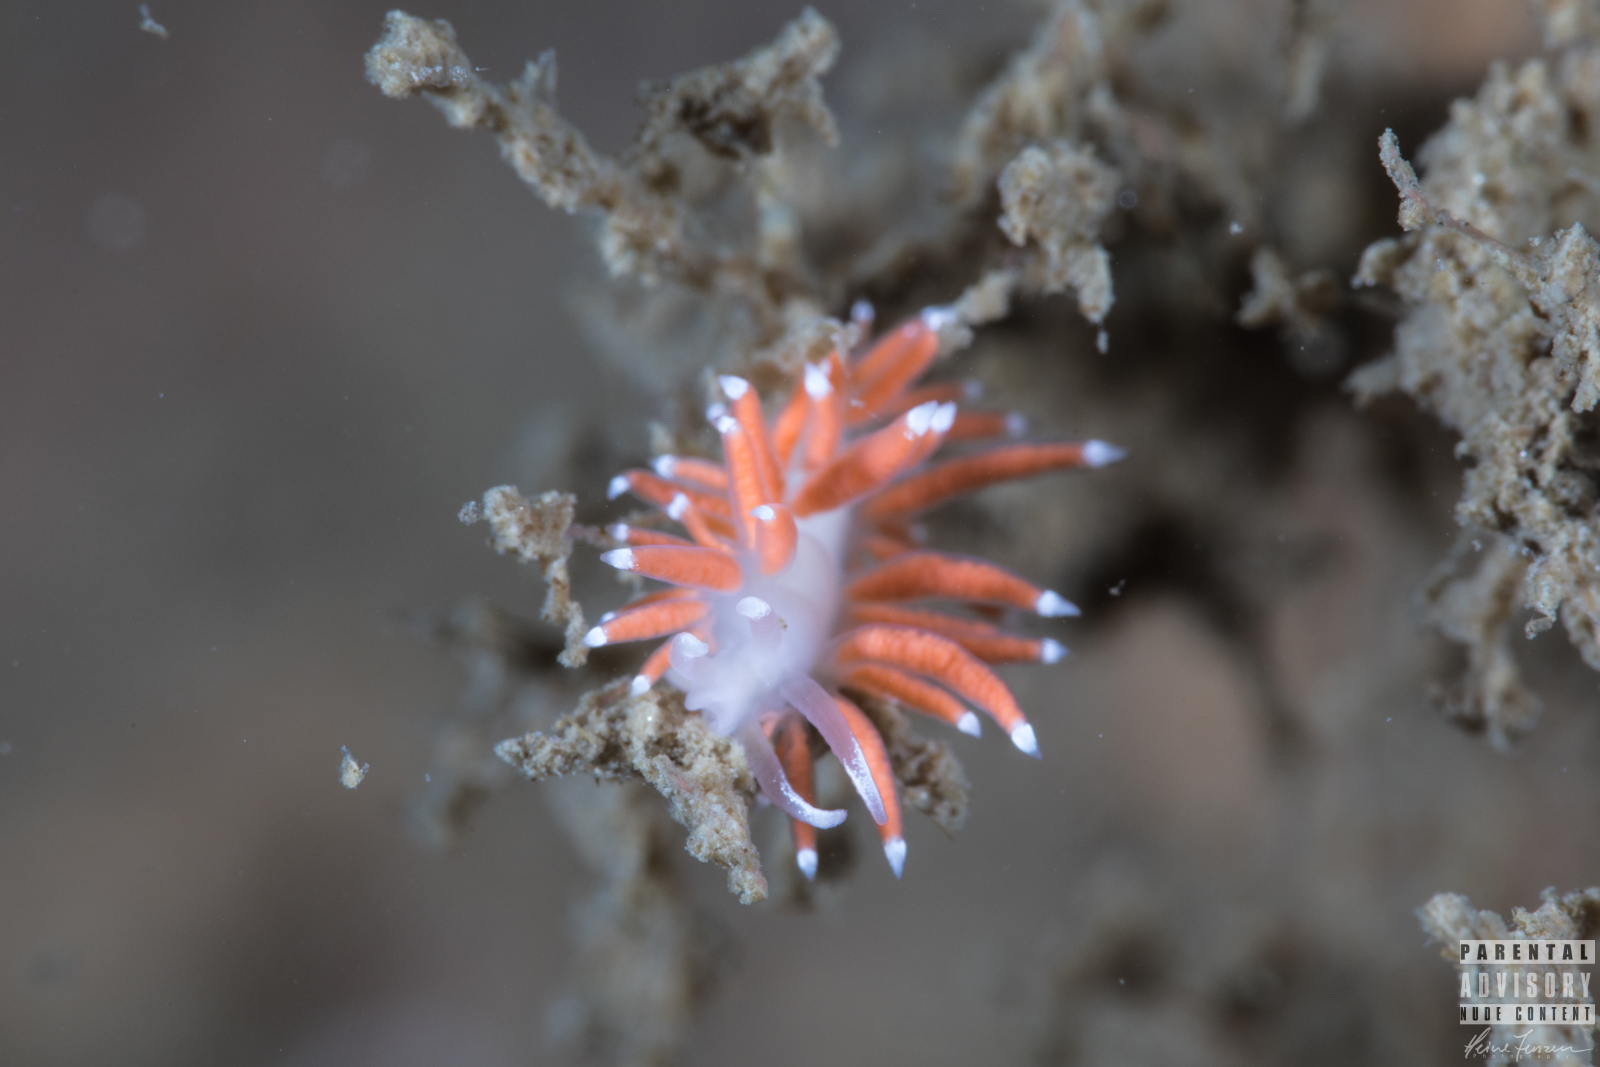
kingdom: Animalia
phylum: Mollusca
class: Gastropoda
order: Nudibranchia
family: Coryphellidae
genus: Coryphella
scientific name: Coryphella gracilis
